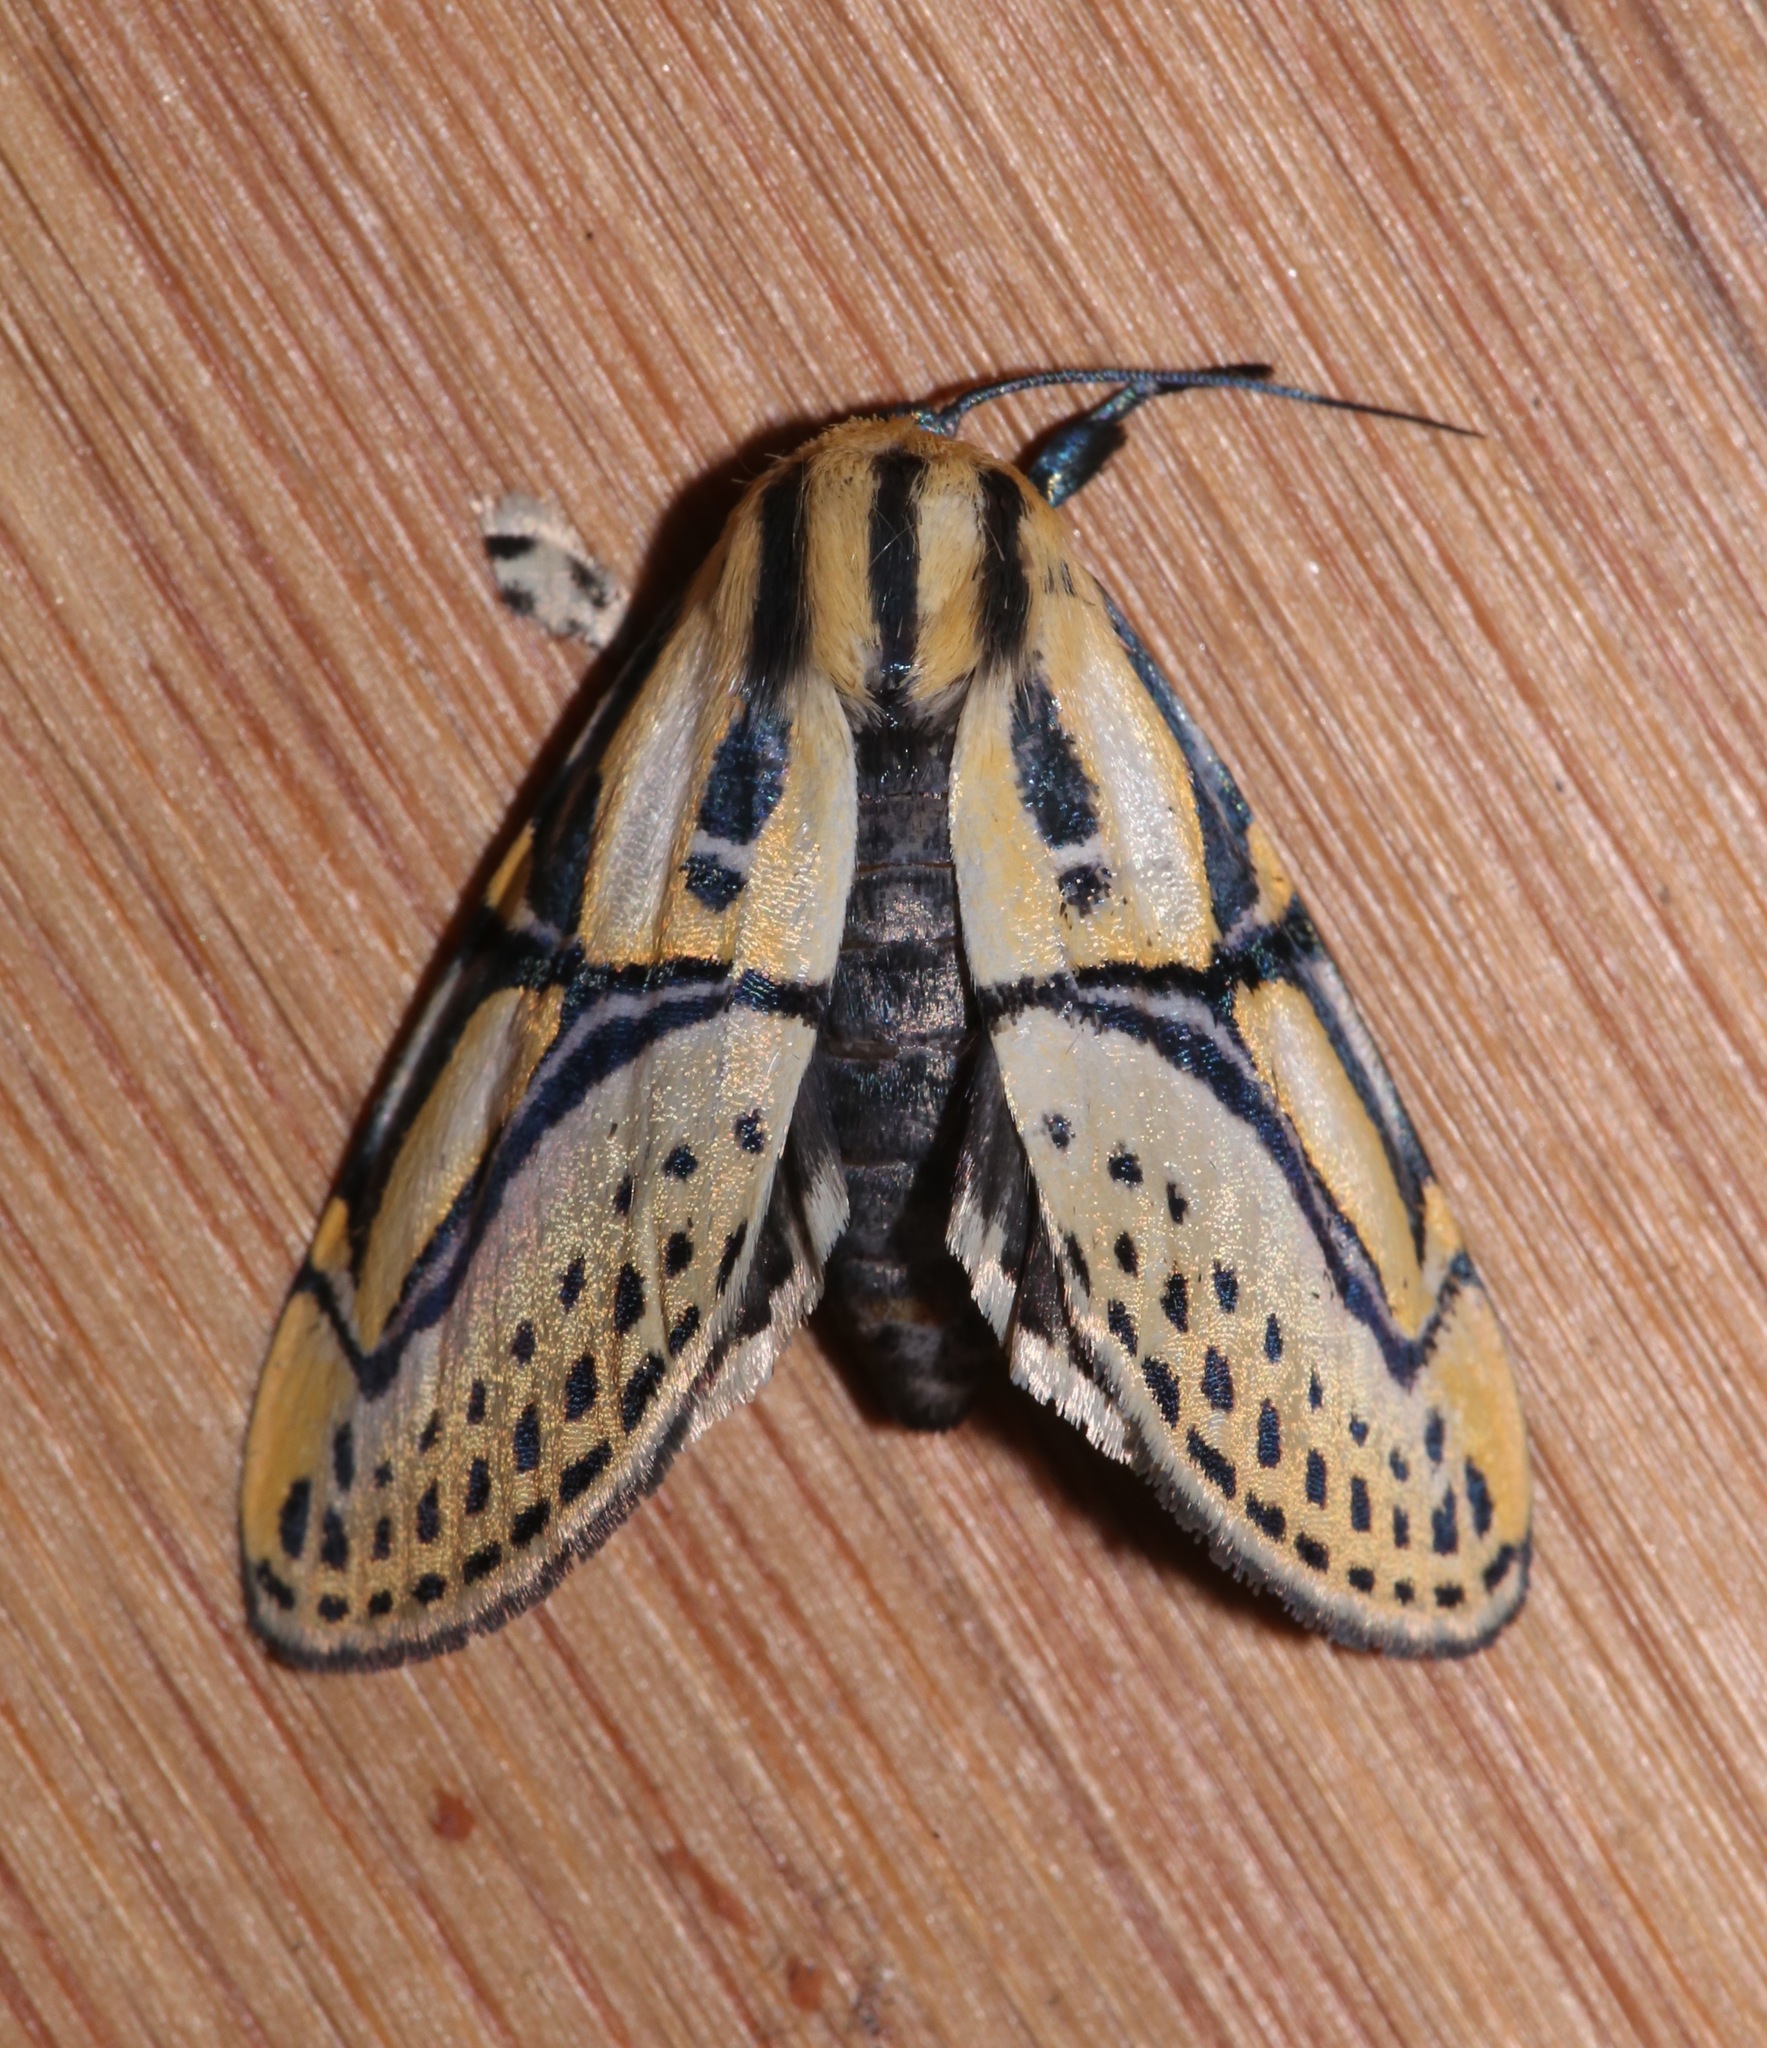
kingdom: Animalia
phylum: Arthropoda
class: Insecta
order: Lepidoptera
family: Erebidae
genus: Diphthera
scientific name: Diphthera festiva
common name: Hieroglyphic moth
